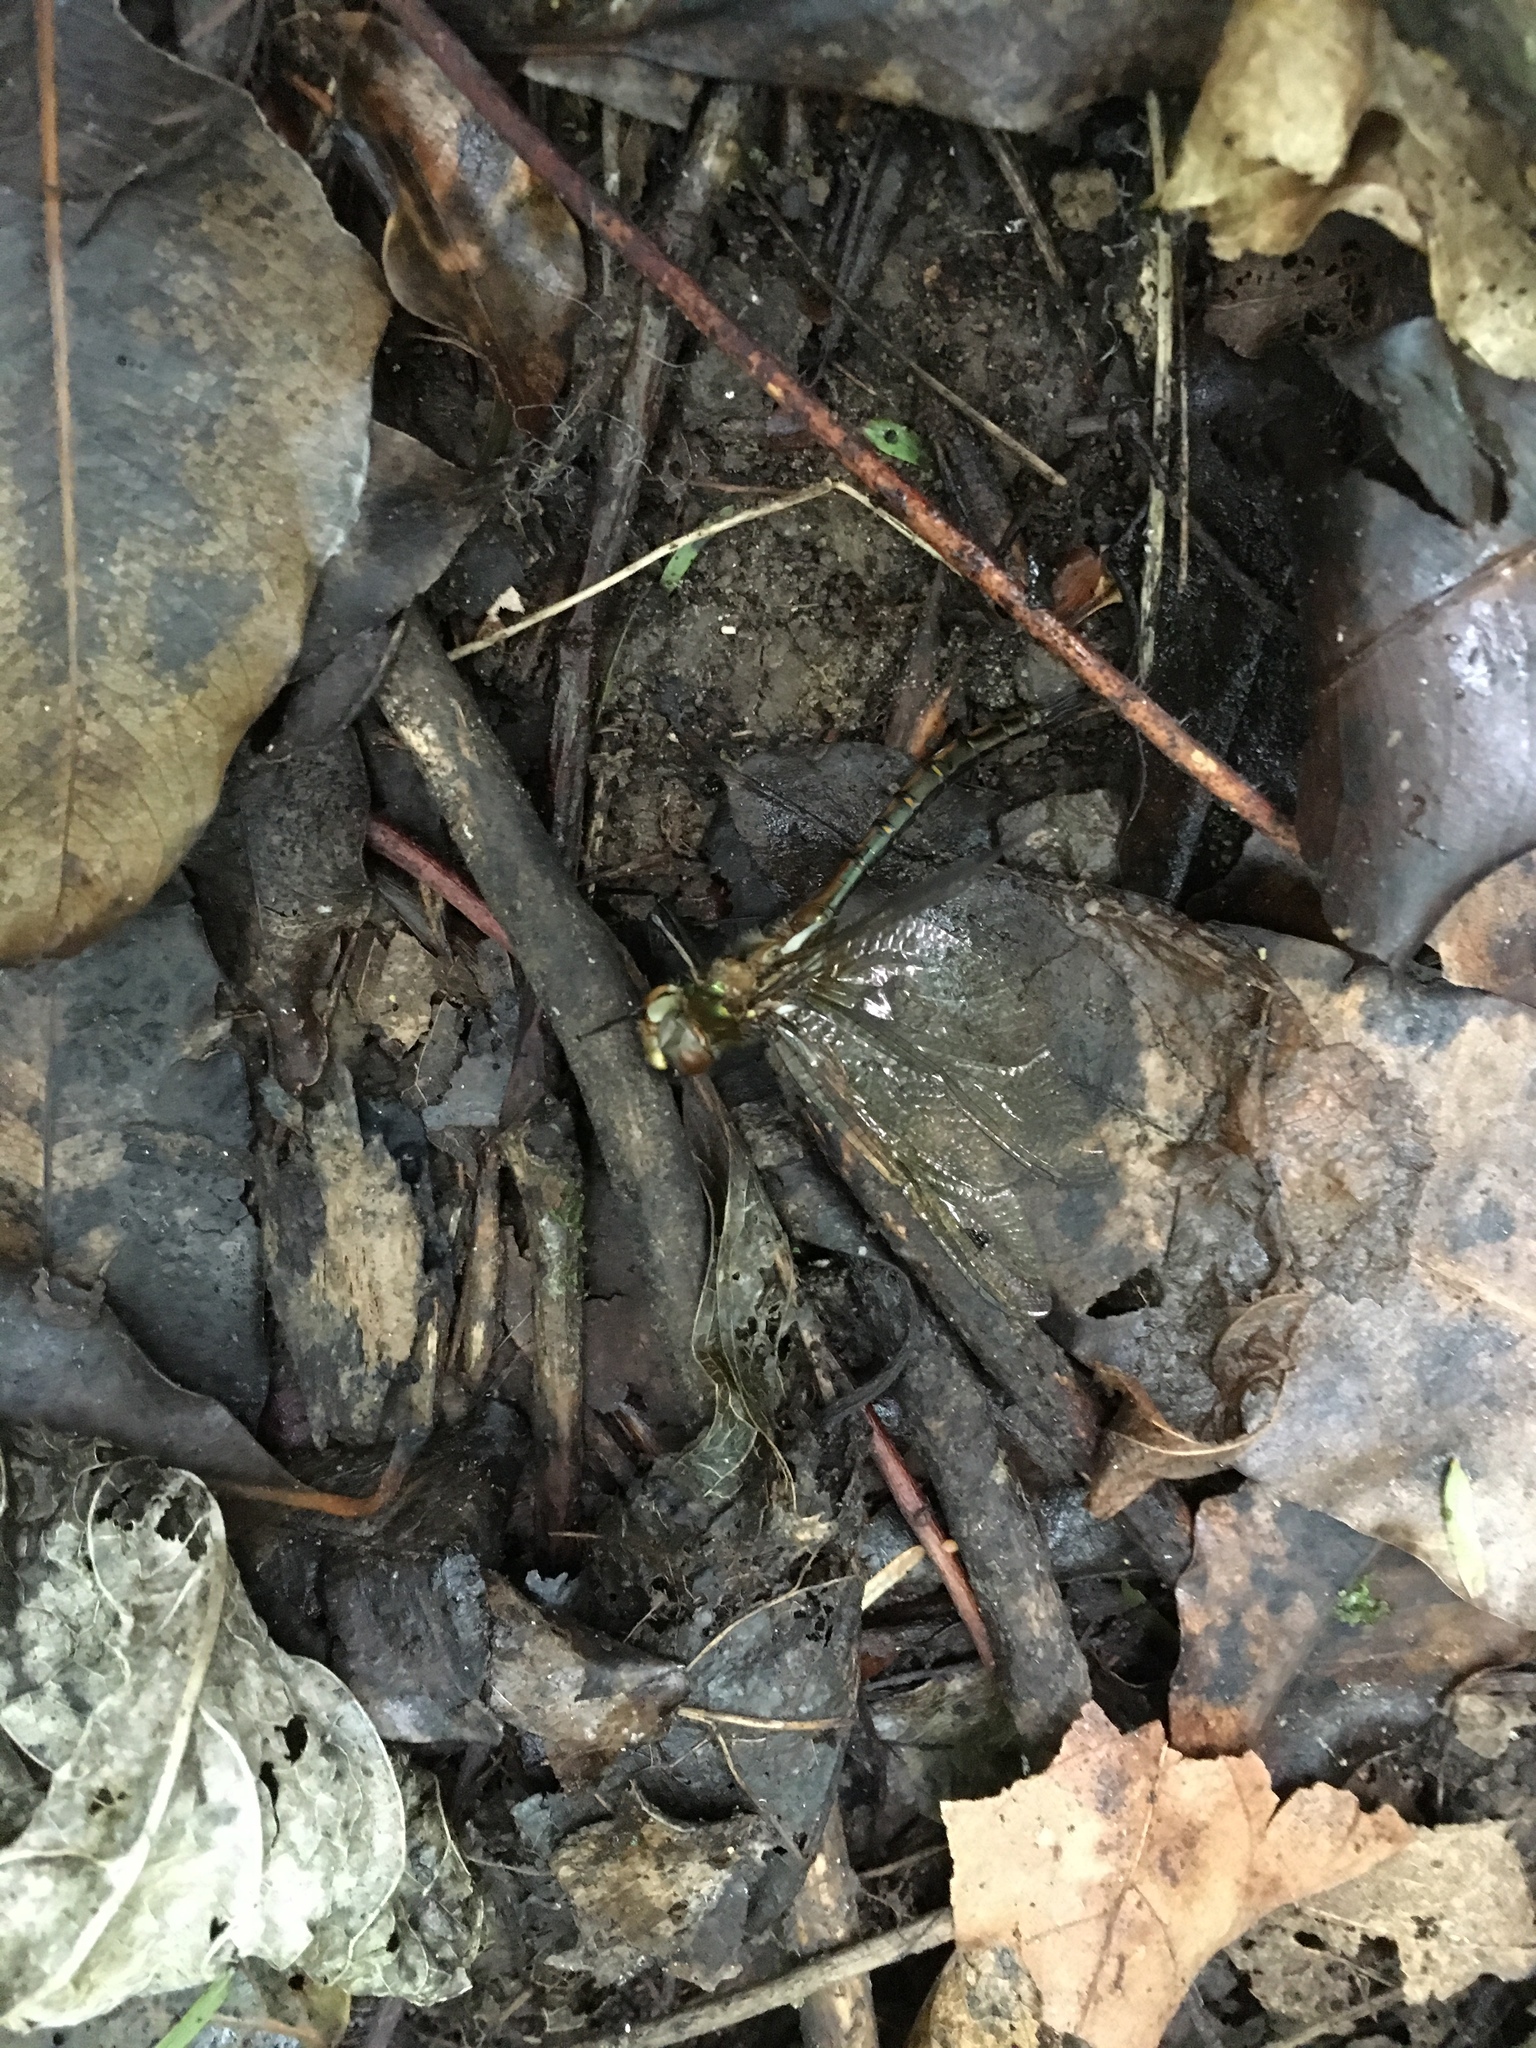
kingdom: Animalia
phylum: Arthropoda
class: Insecta
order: Odonata
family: Corduliidae
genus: Procordulia
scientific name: Procordulia smithii
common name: Ranger dragonfly
